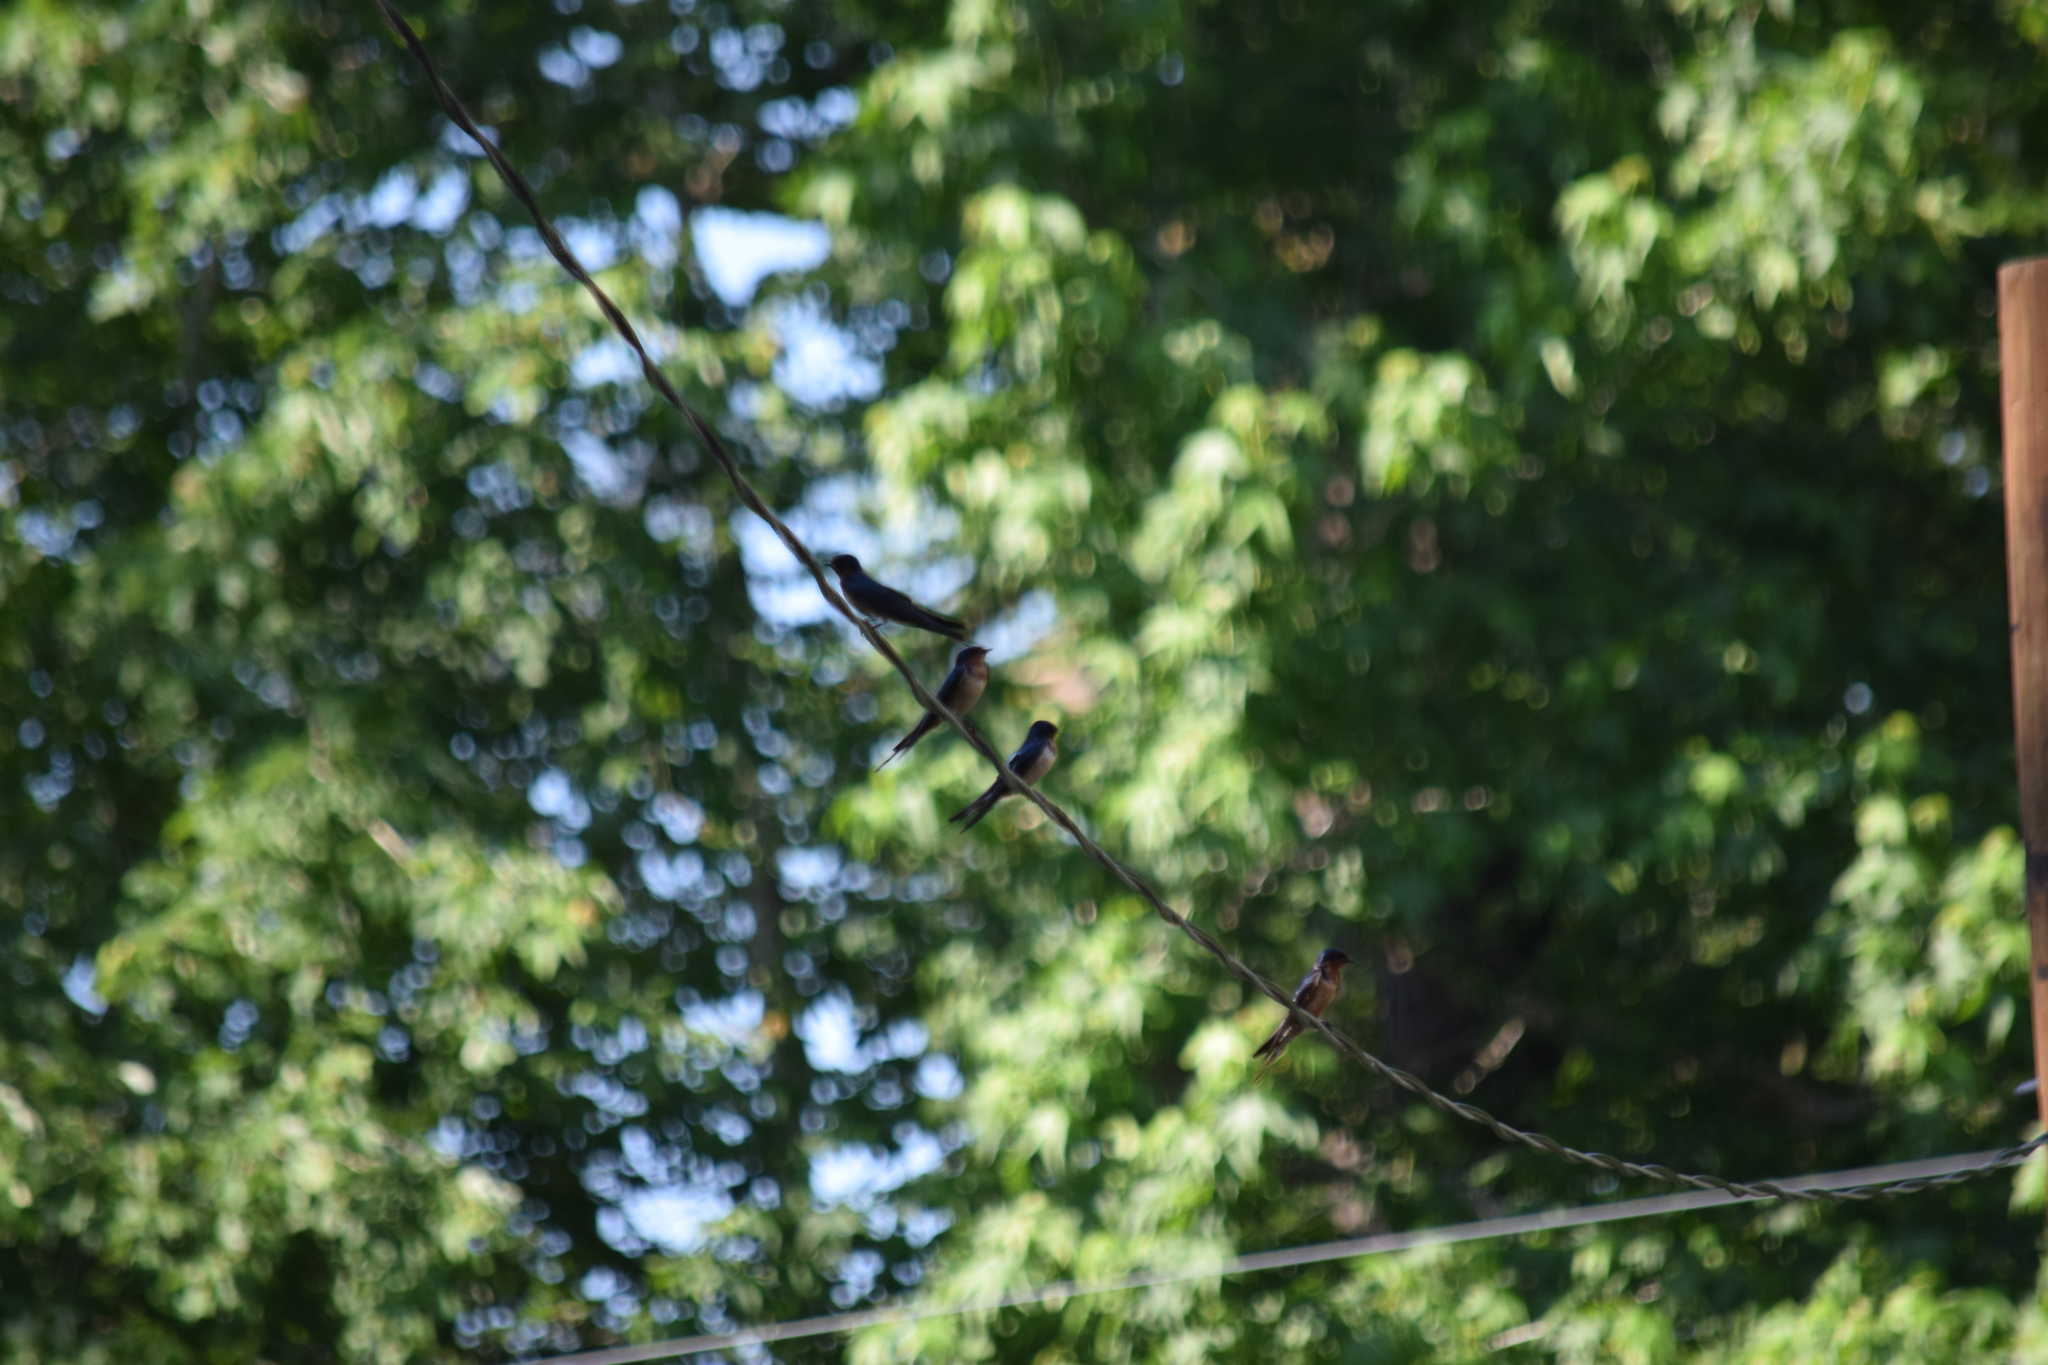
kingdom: Animalia
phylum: Chordata
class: Aves
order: Passeriformes
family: Hirundinidae
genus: Hirundo
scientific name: Hirundo rustica
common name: Barn swallow
